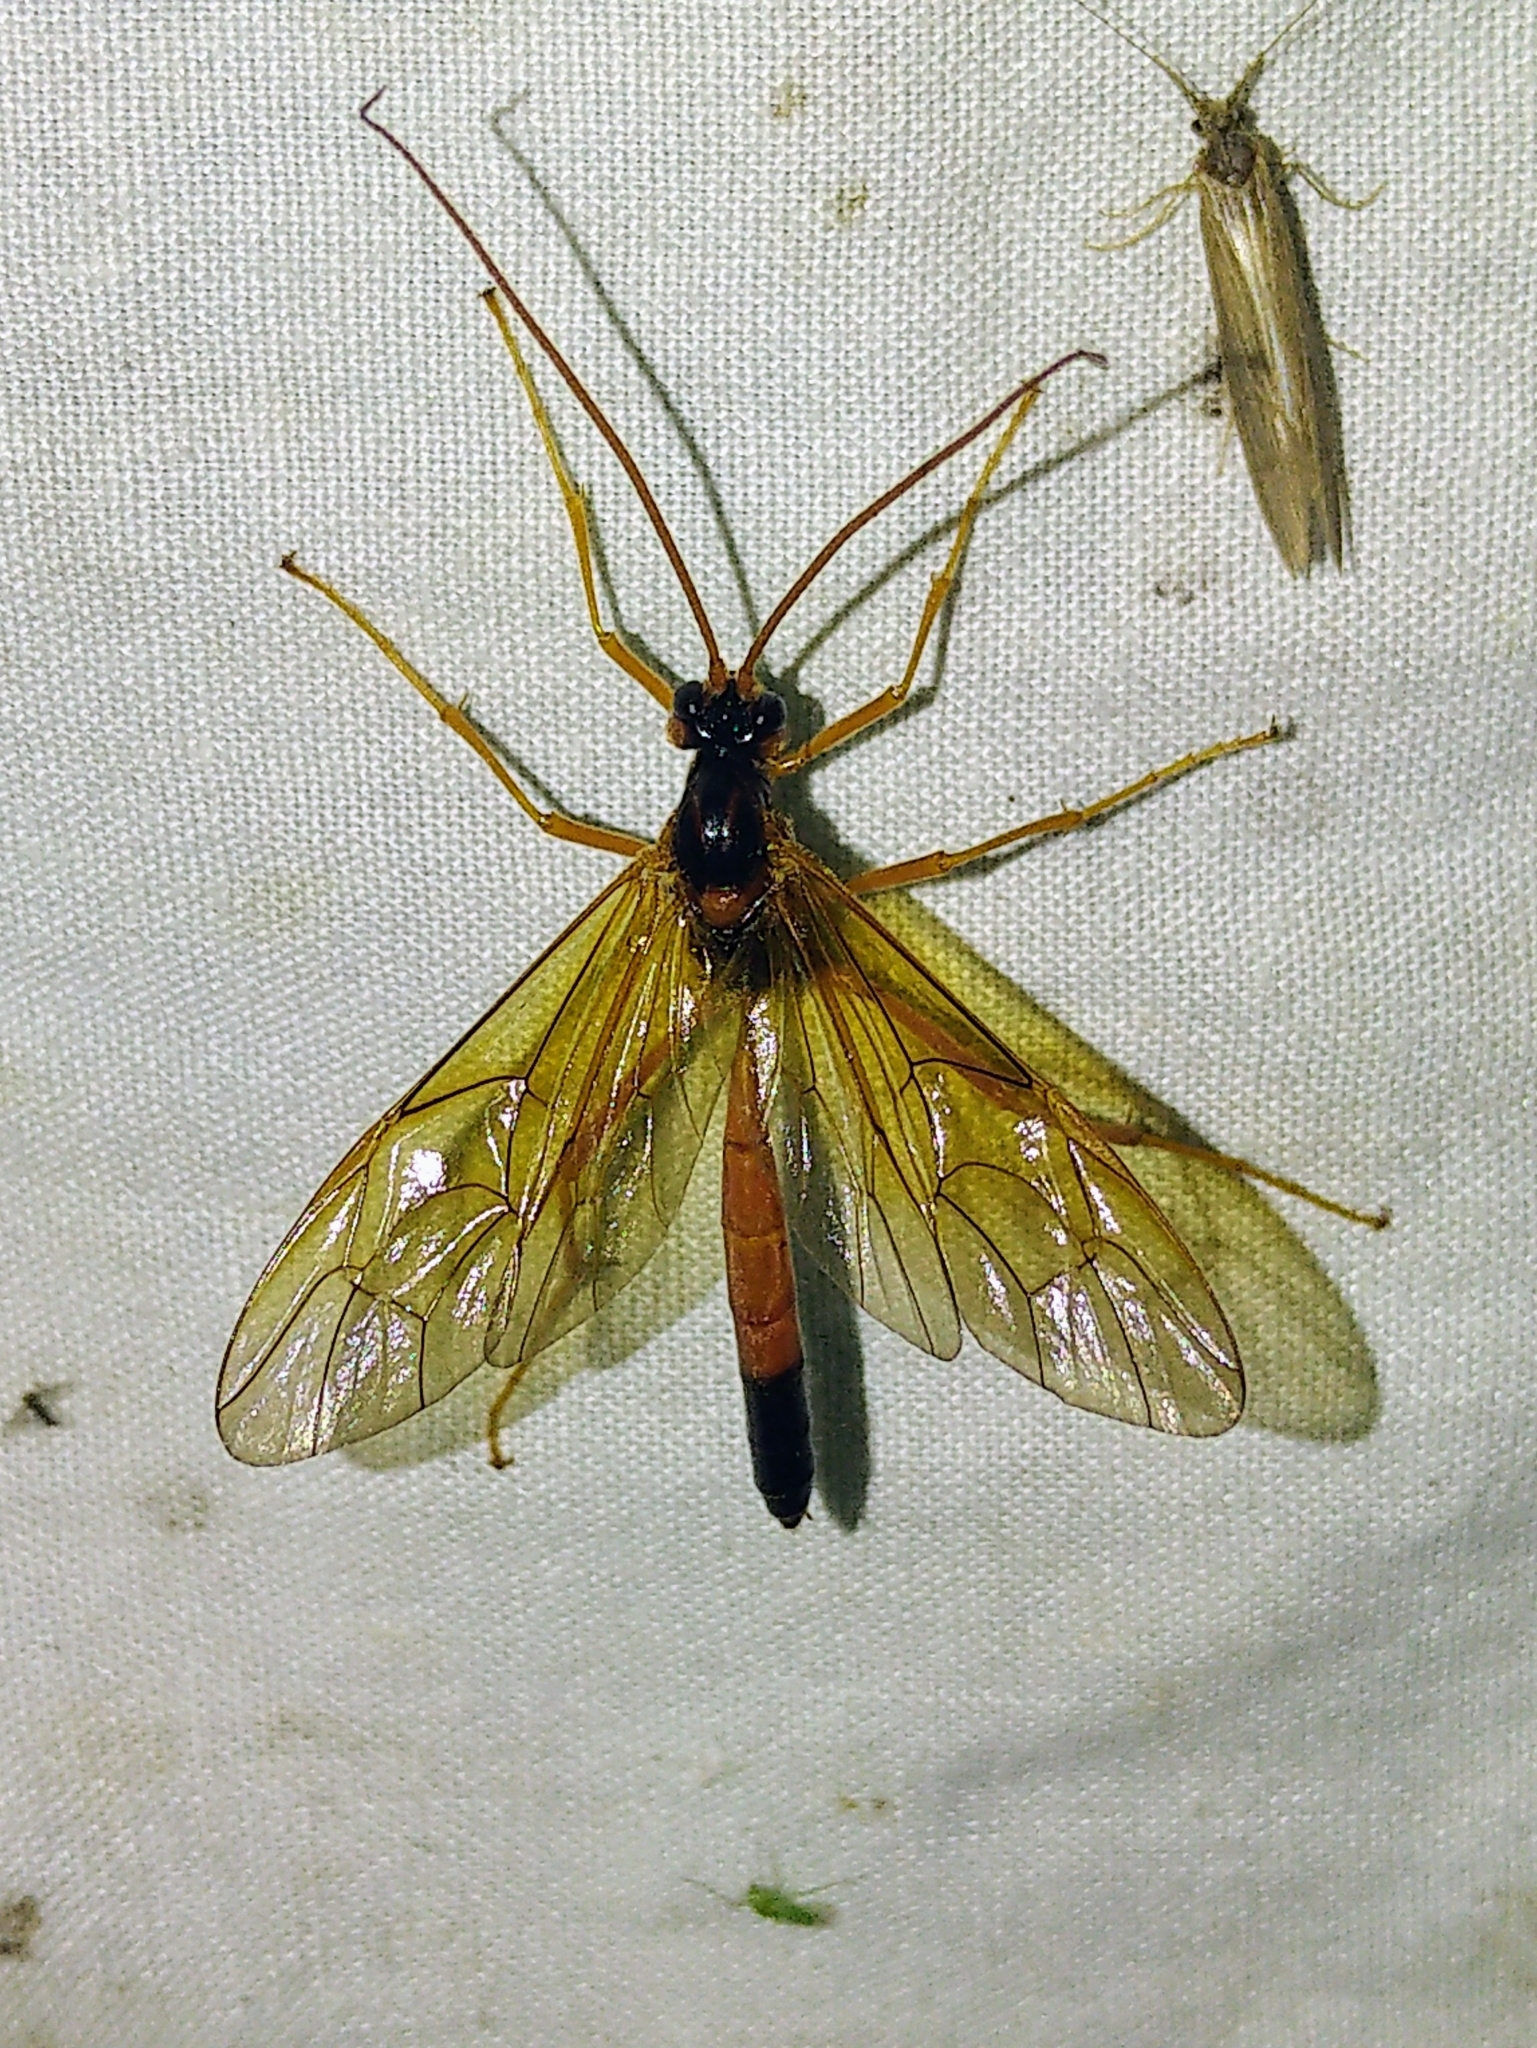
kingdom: Animalia
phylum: Arthropoda
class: Insecta
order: Hymenoptera
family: Ichneumonidae
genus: Opheltes
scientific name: Opheltes glaucopterus
